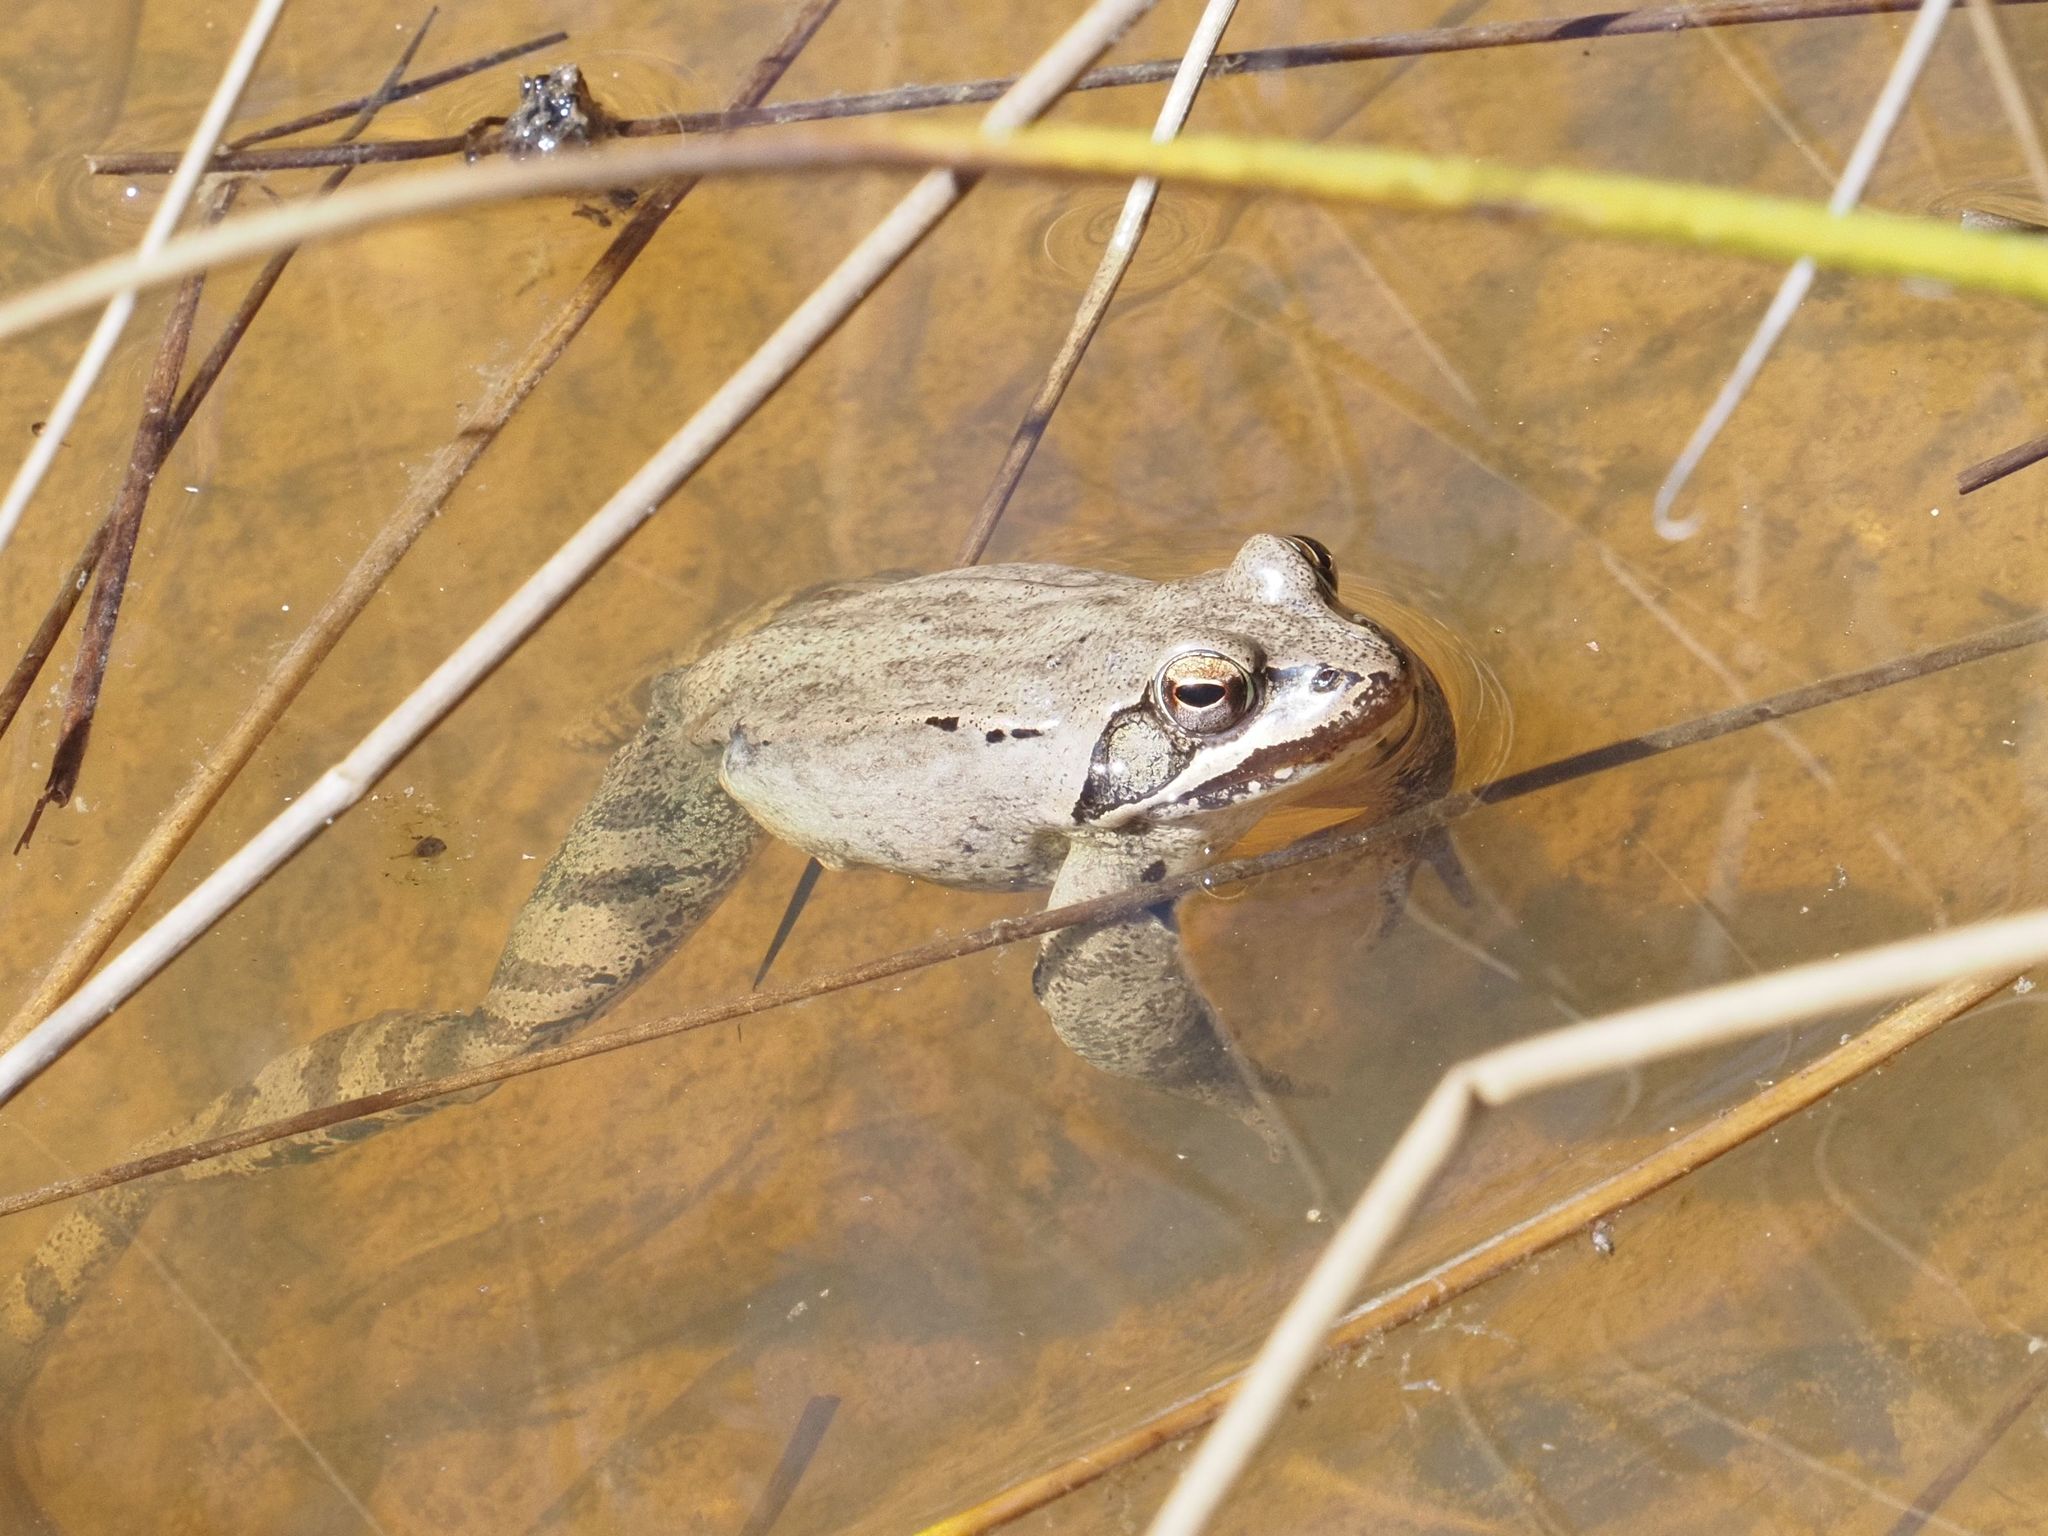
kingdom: Animalia
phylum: Chordata
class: Amphibia
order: Anura
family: Ranidae
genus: Rana
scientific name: Rana dalmatina
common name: Agile frog
